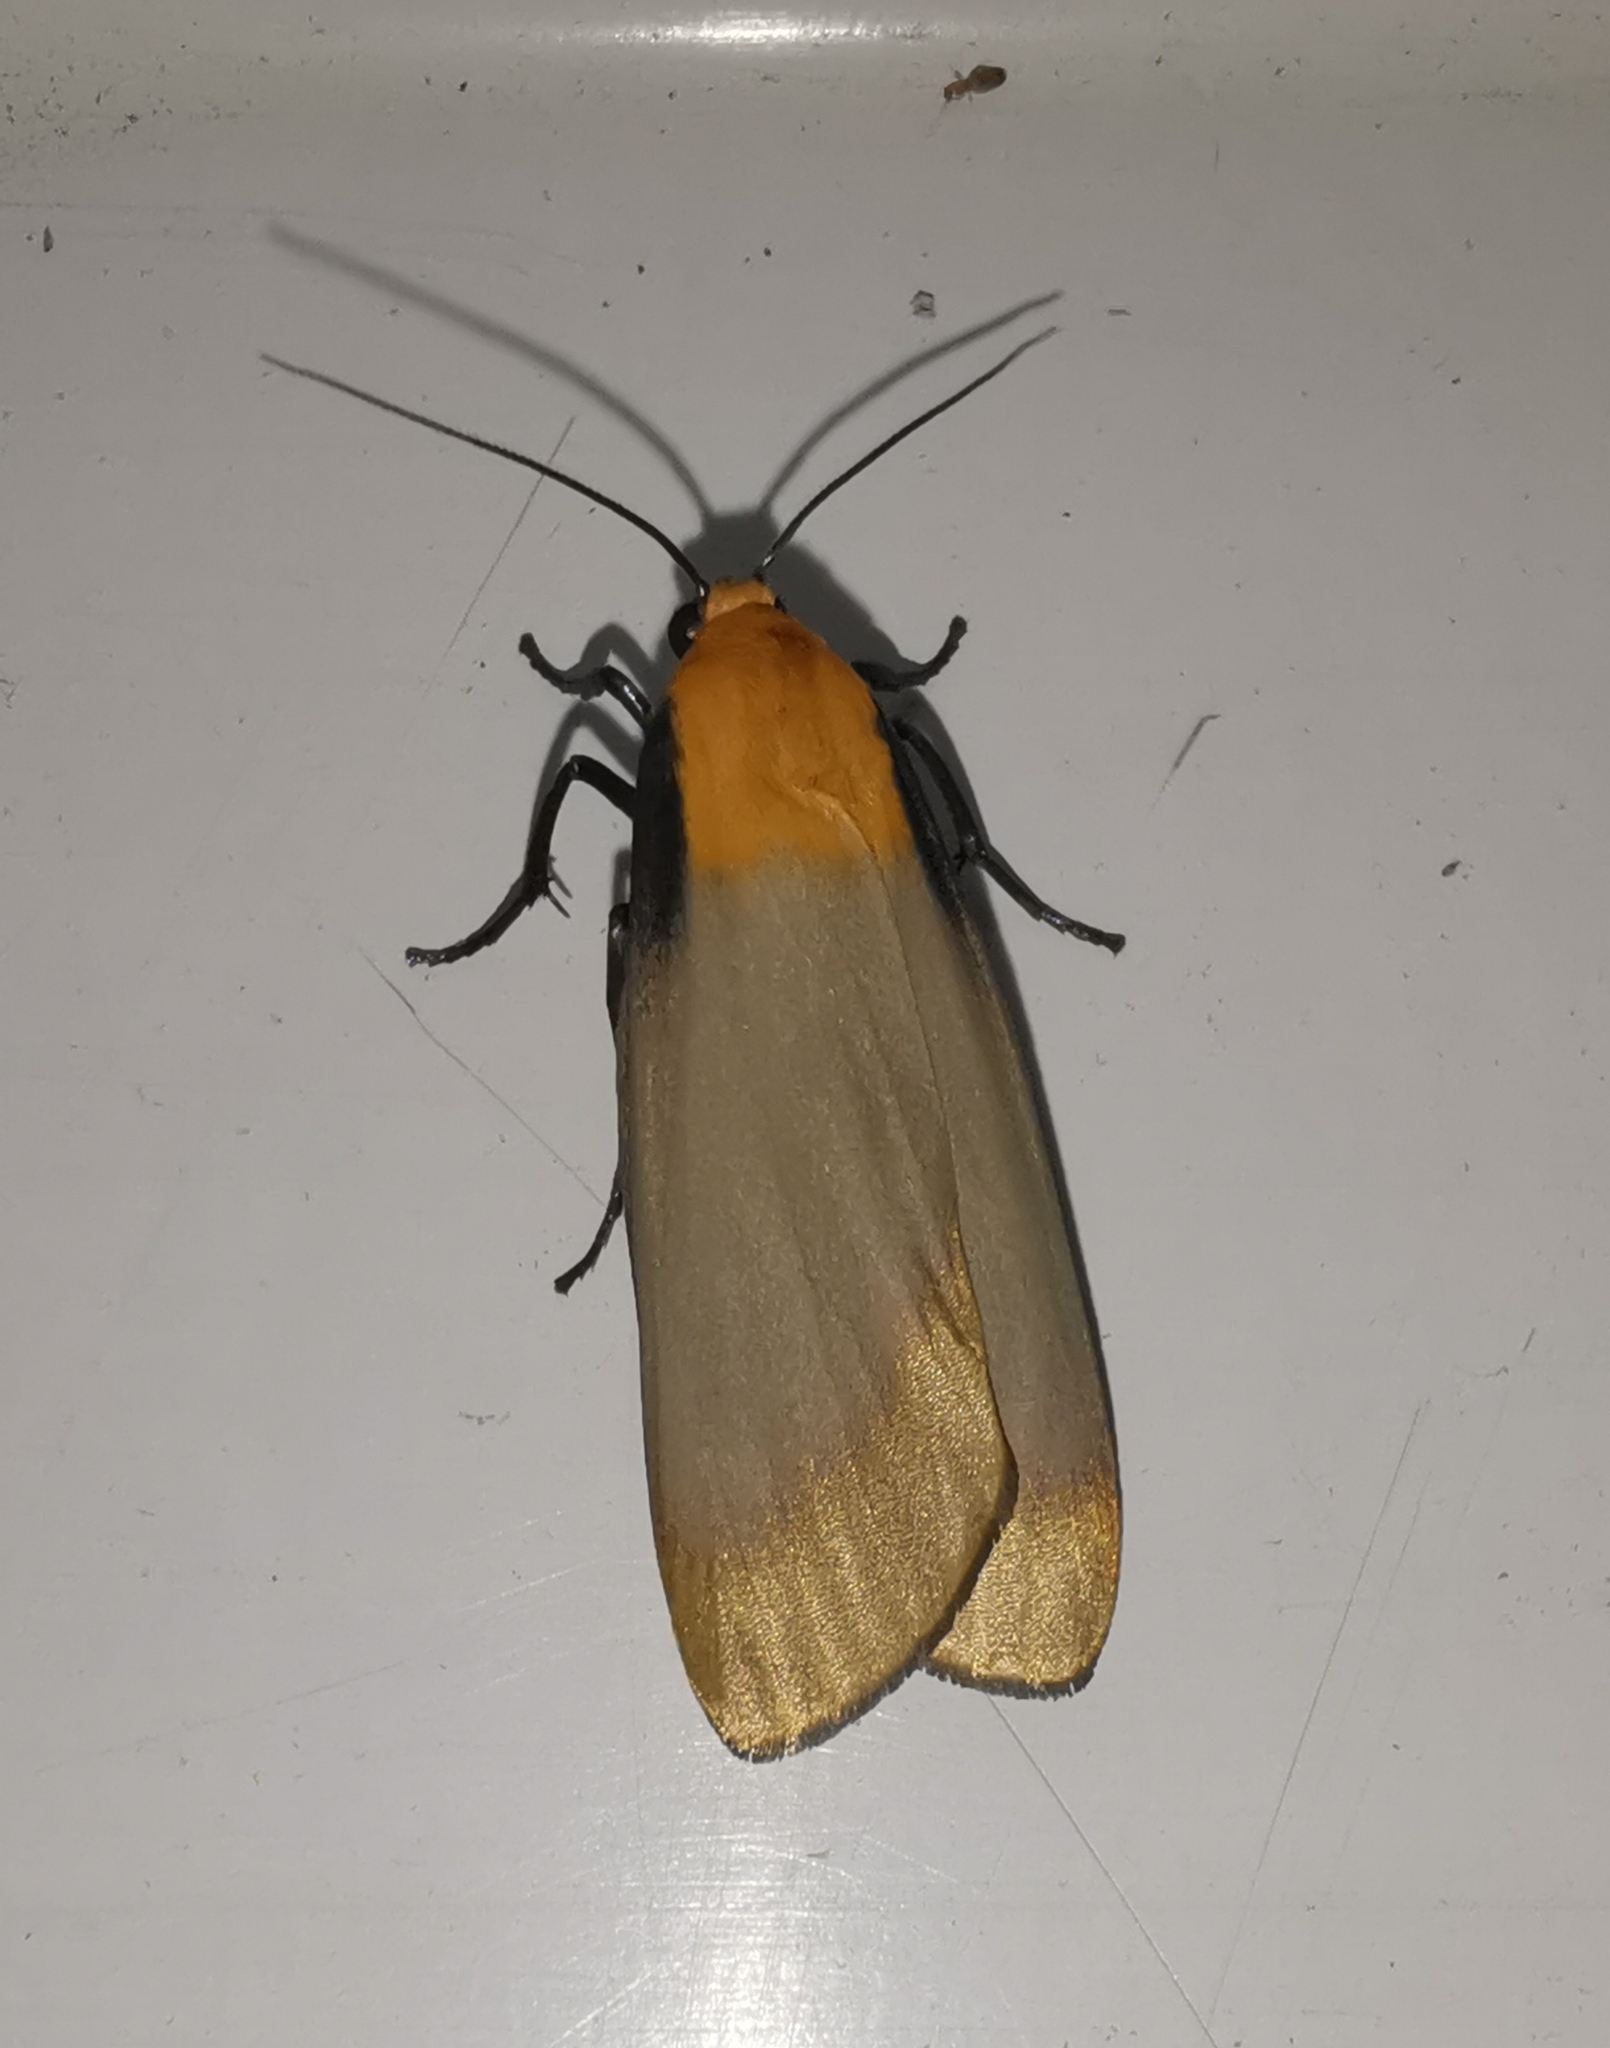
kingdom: Animalia
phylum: Arthropoda
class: Insecta
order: Lepidoptera
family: Erebidae
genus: Lithosia
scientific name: Lithosia quadra
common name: Four-spotted footman
